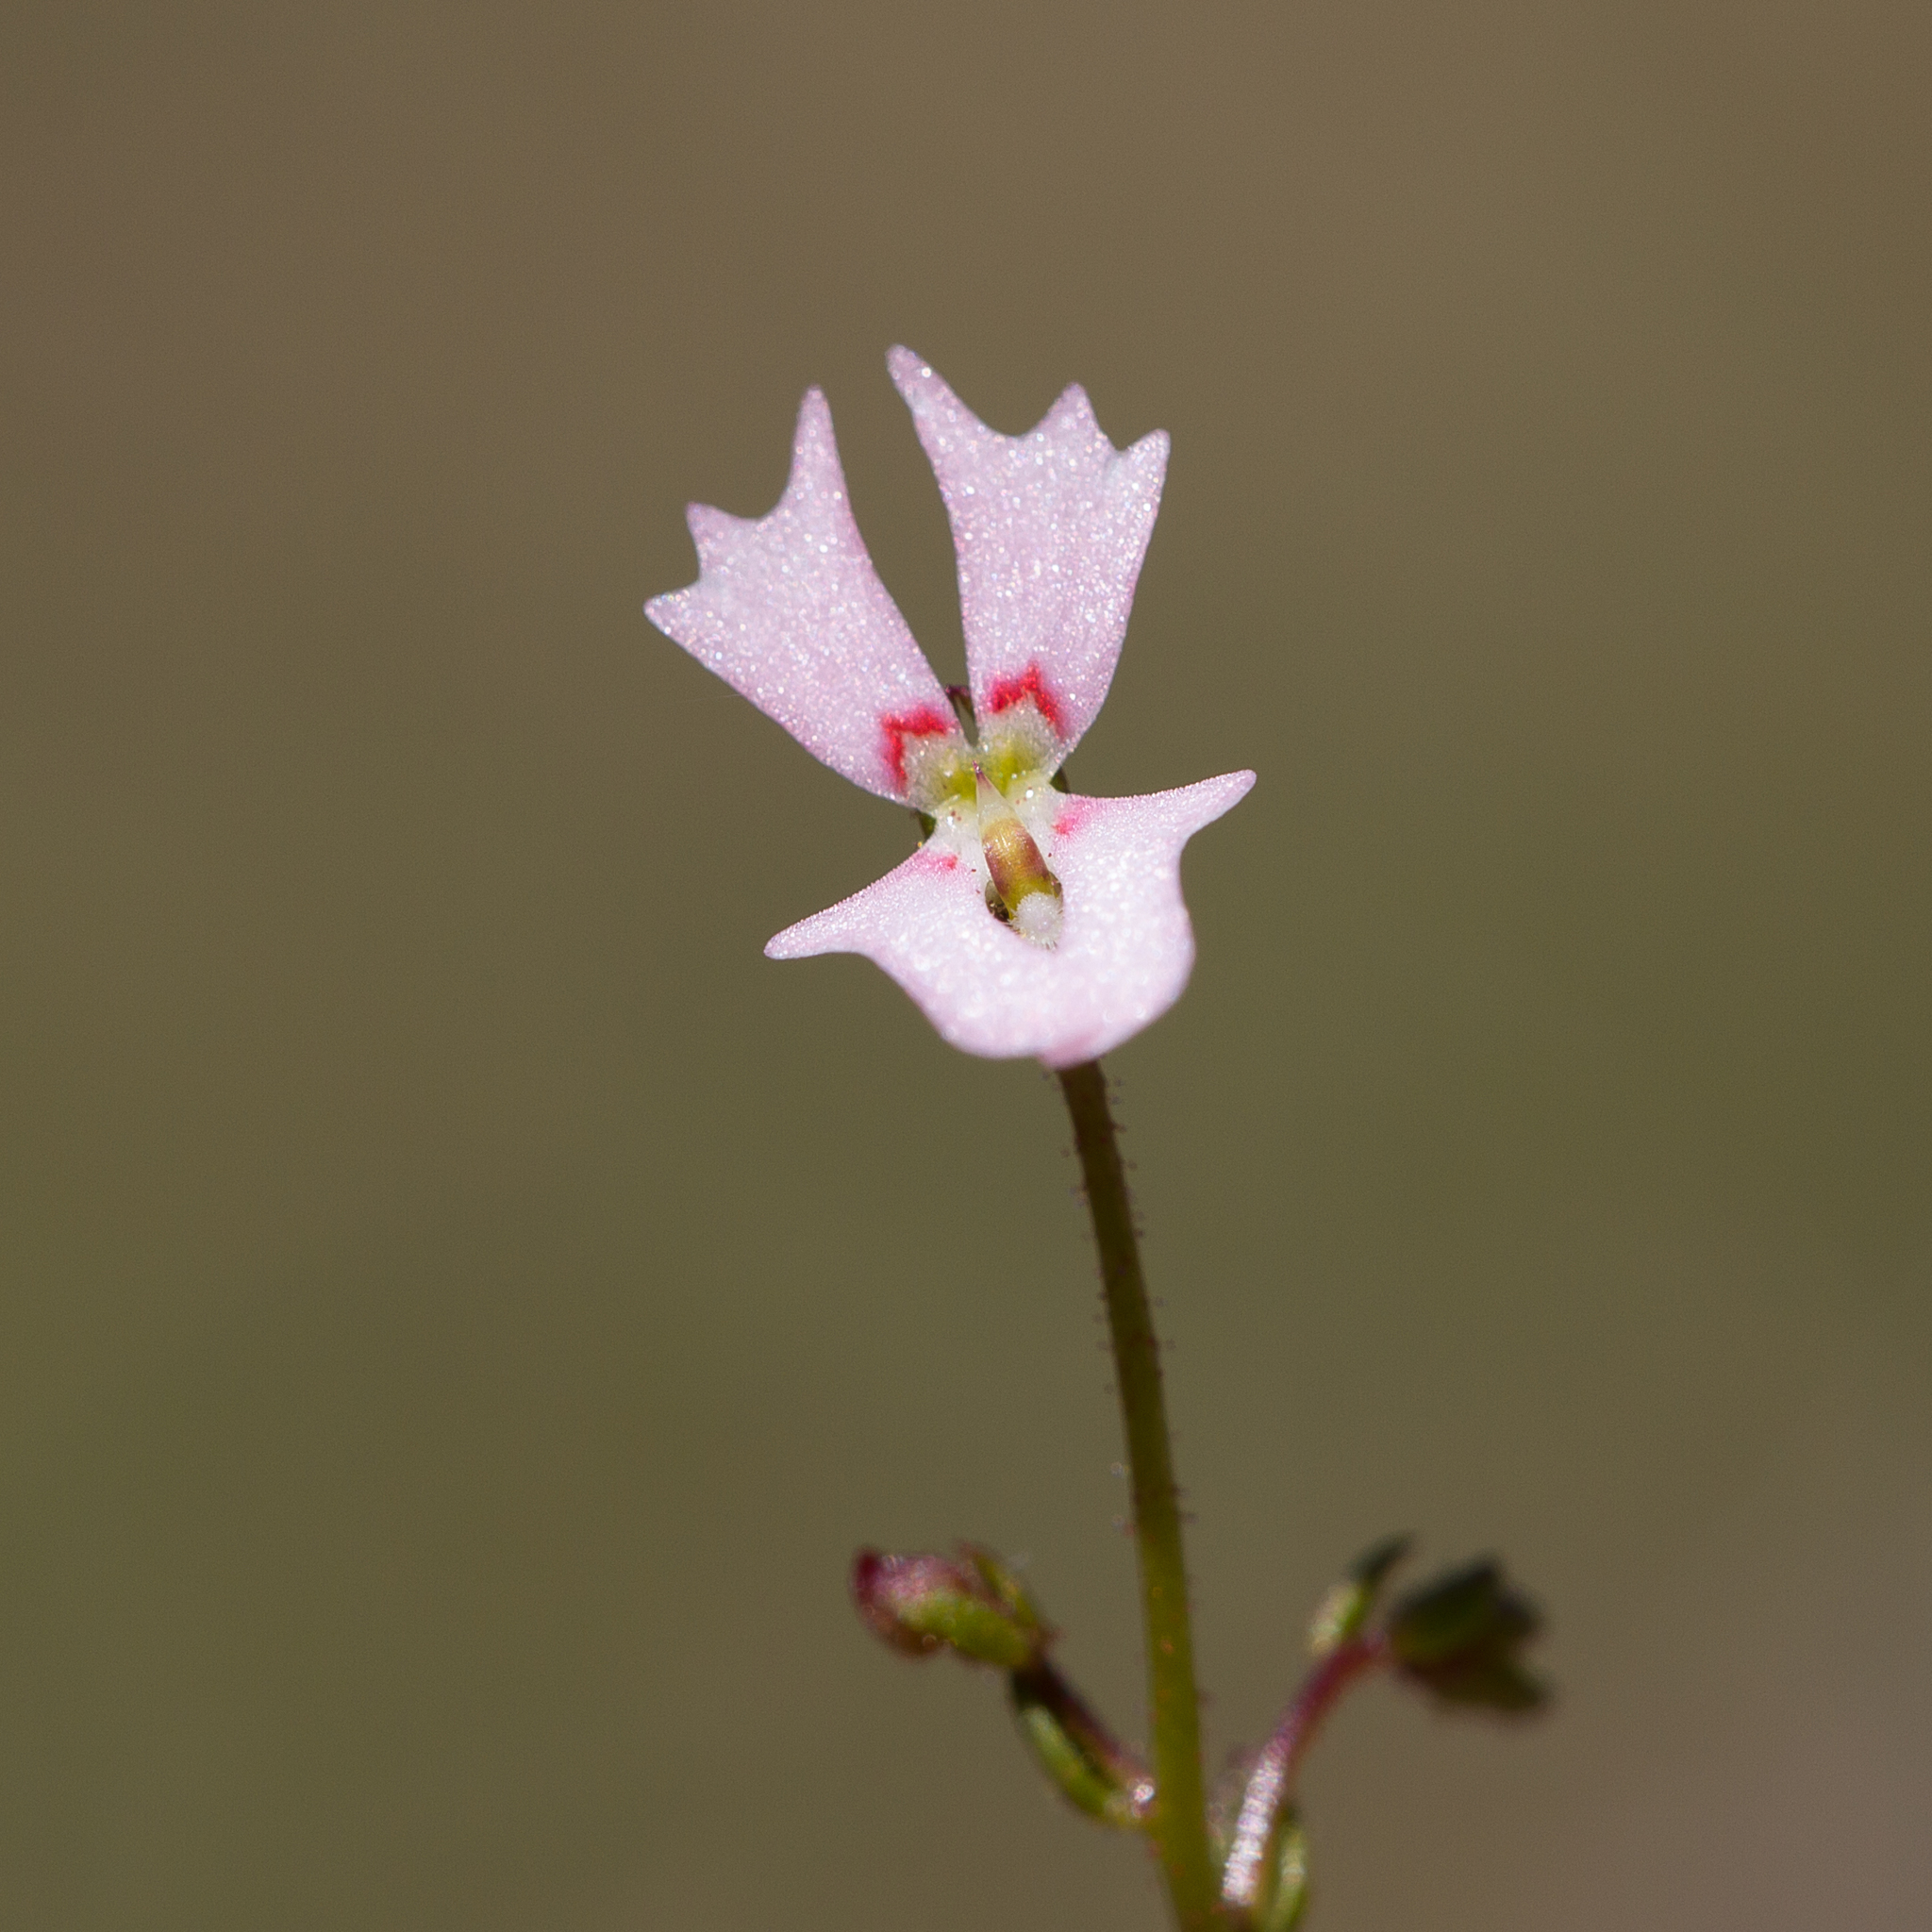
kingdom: Plantae
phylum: Tracheophyta
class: Magnoliopsida
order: Asterales
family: Stylidiaceae
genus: Stylidium
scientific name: Stylidium calcaratum
